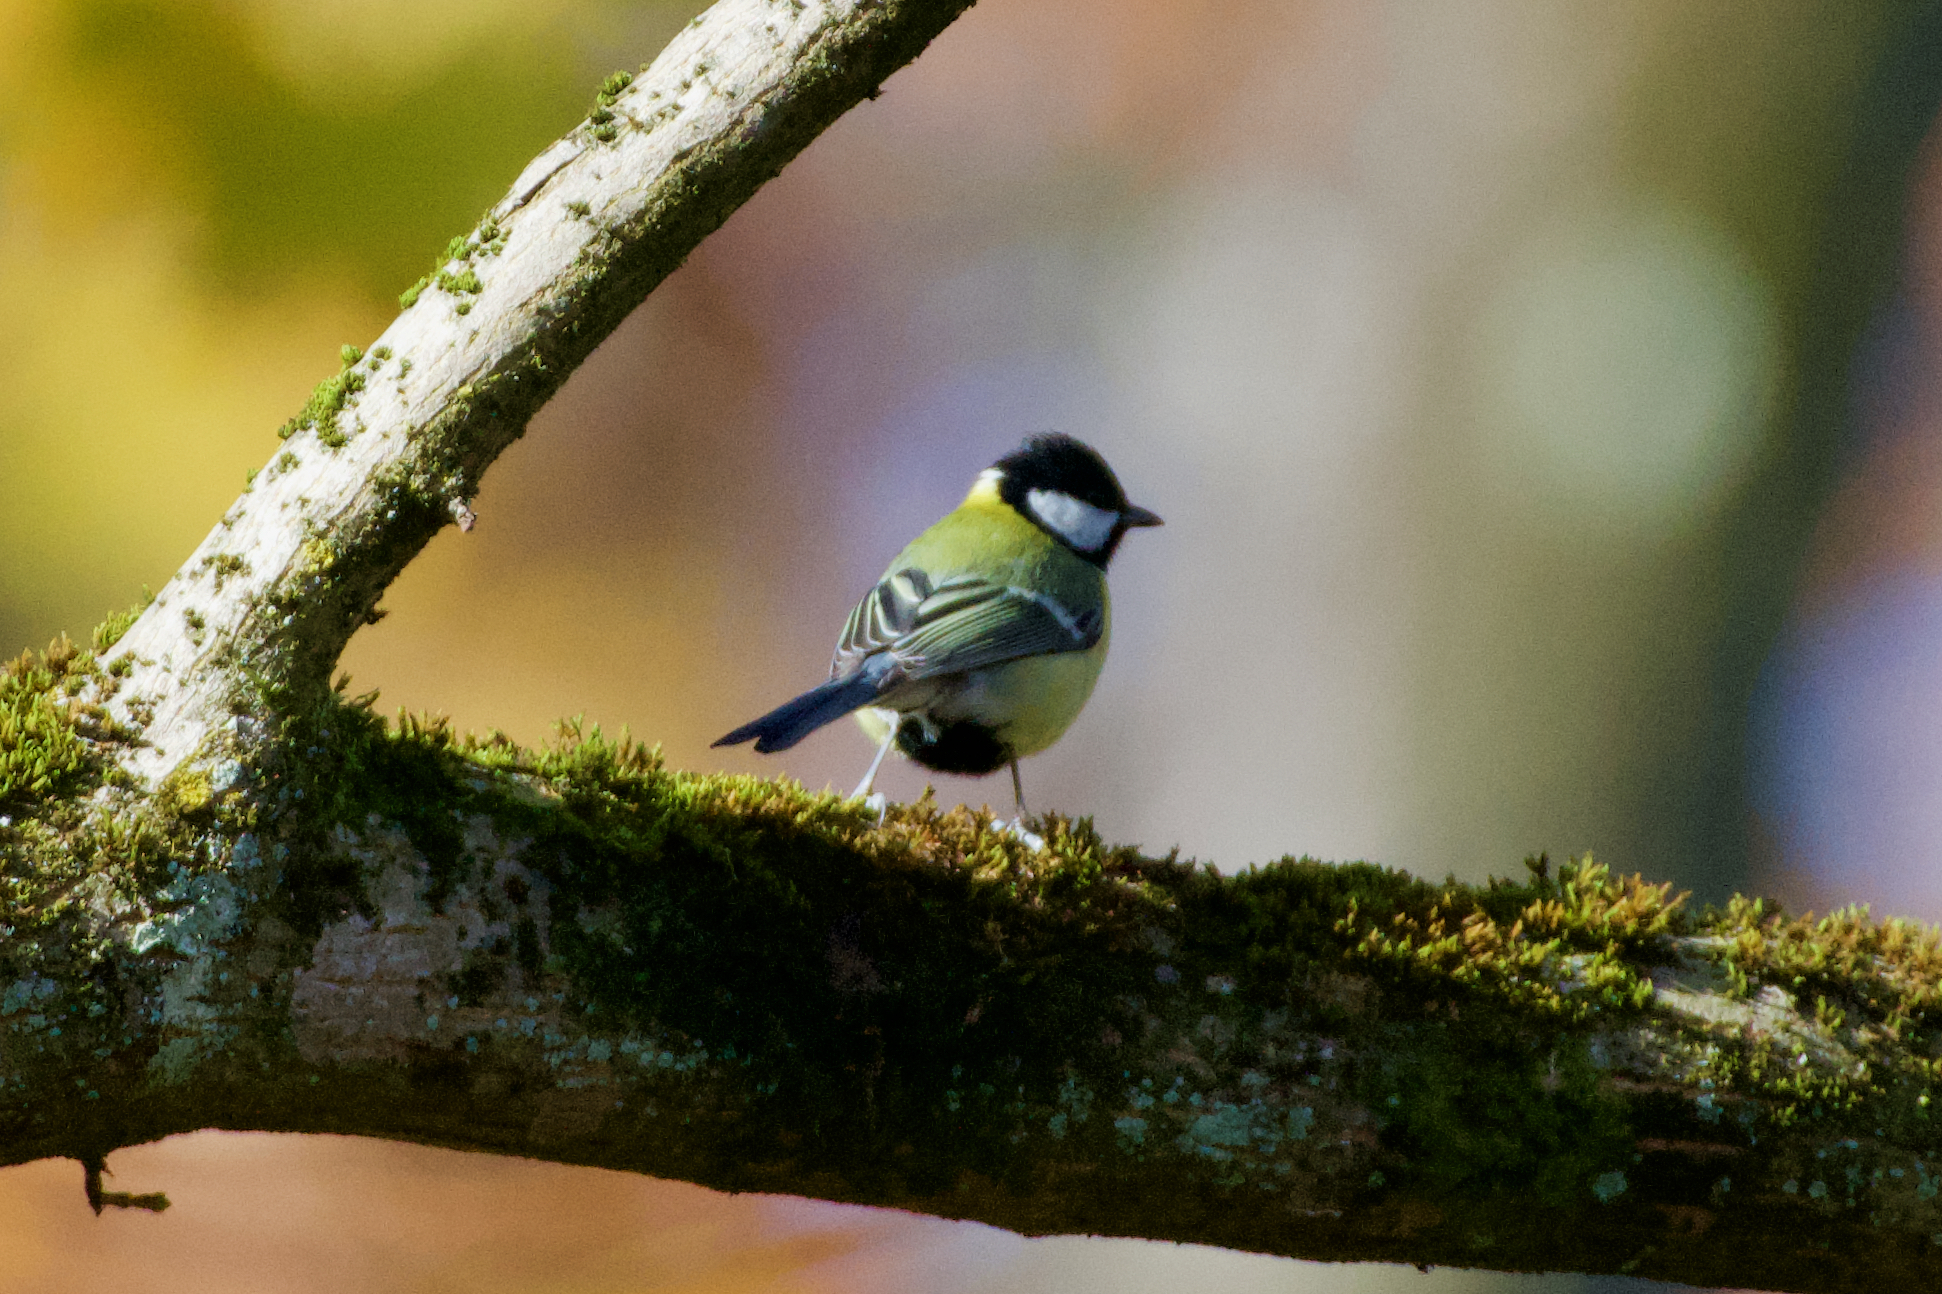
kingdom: Animalia
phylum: Chordata
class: Aves
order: Passeriformes
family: Paridae
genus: Parus
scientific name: Parus major
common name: Great tit
